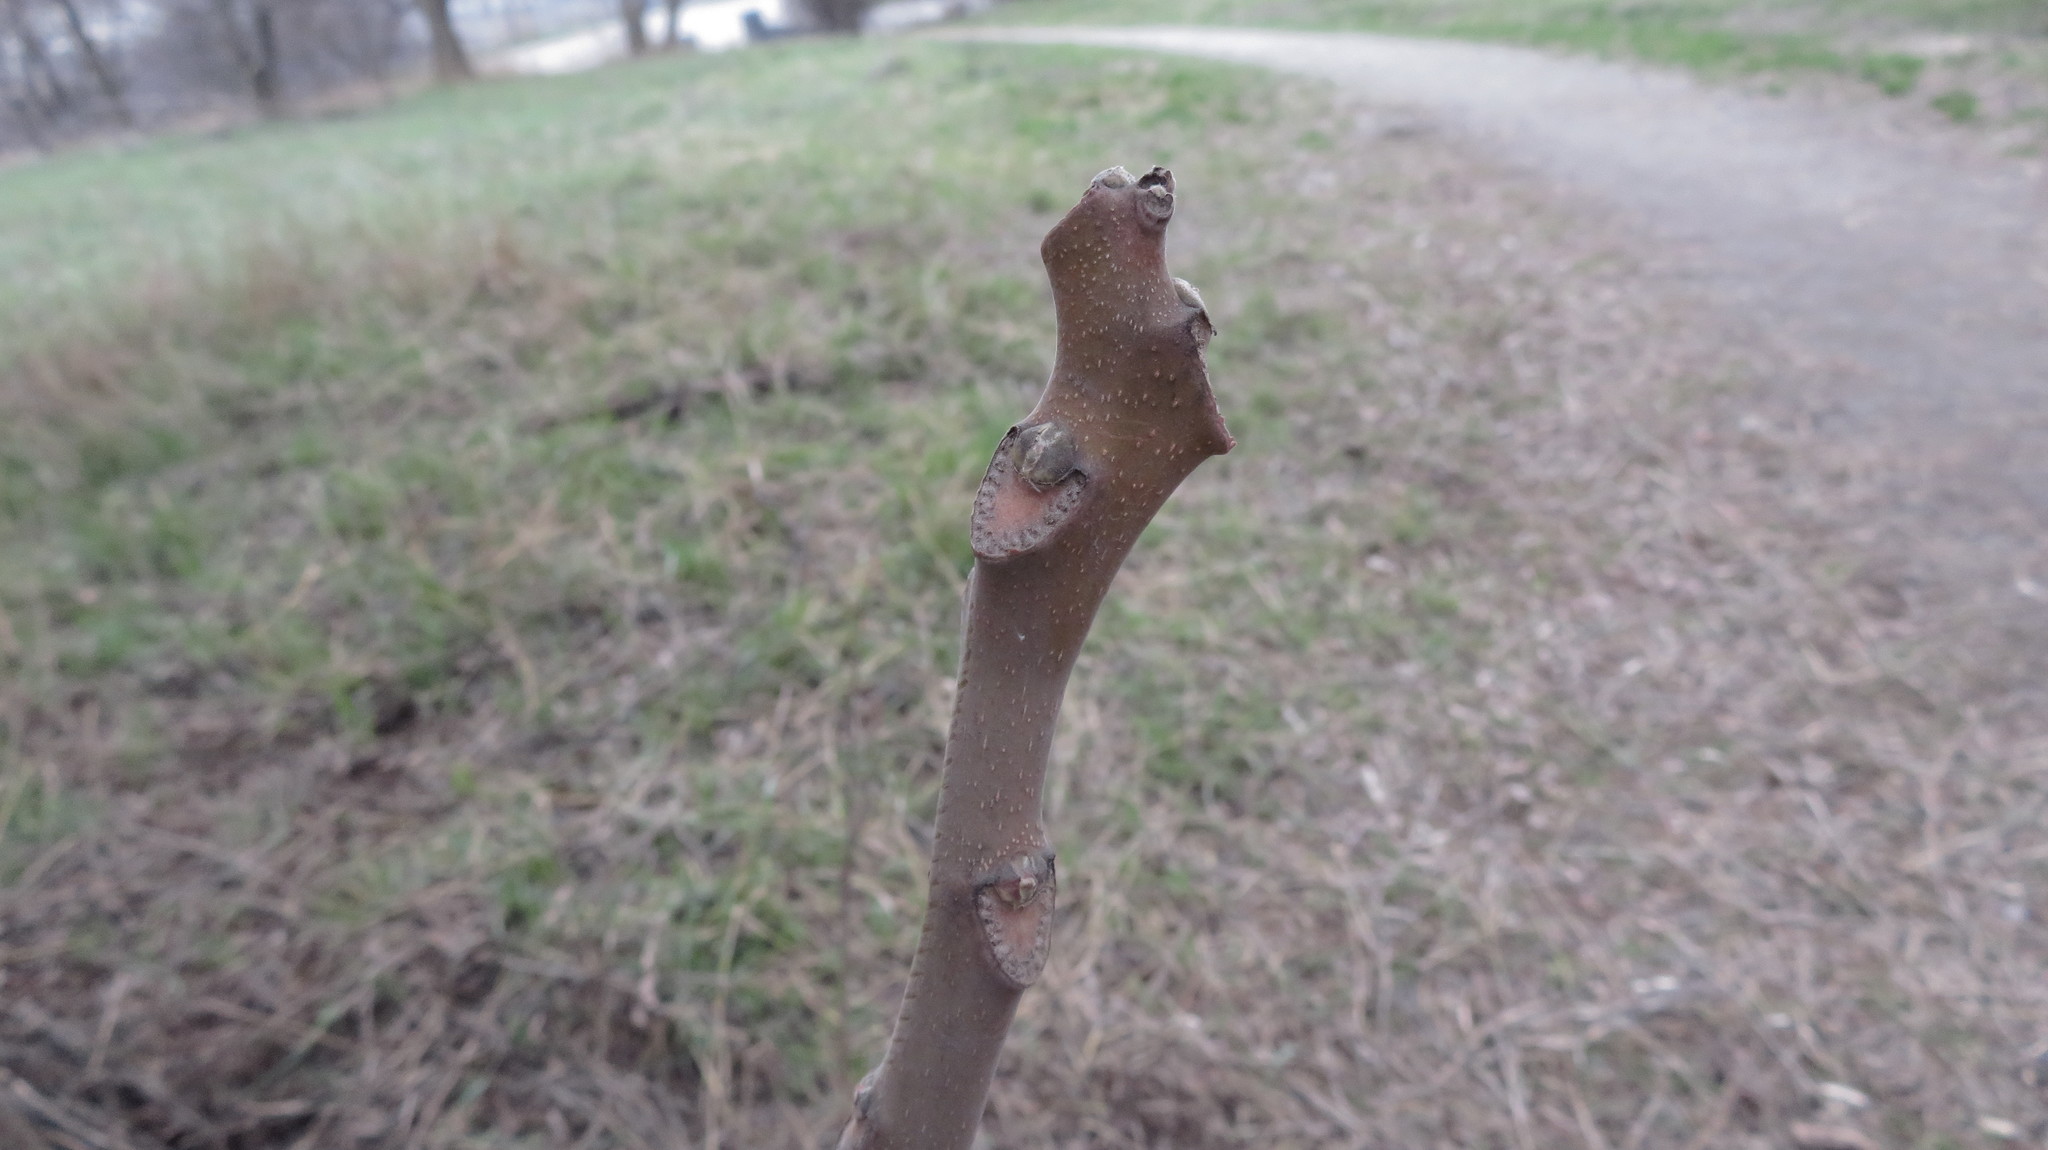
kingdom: Plantae
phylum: Tracheophyta
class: Magnoliopsida
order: Sapindales
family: Simaroubaceae
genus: Ailanthus
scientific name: Ailanthus altissima
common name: Tree-of-heaven
